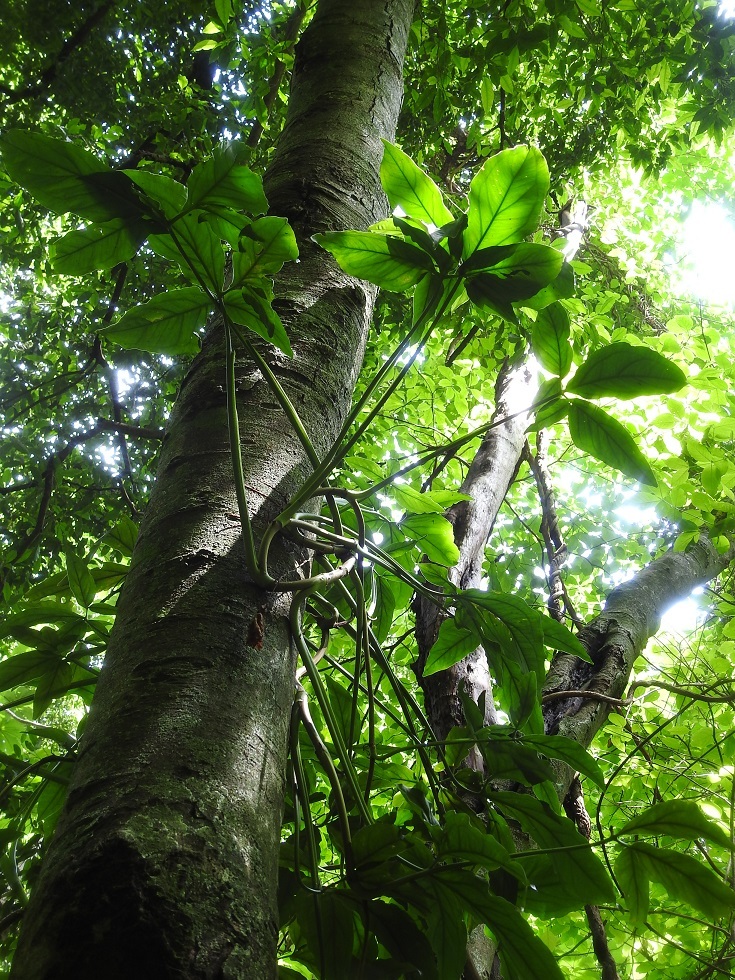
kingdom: Plantae
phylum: Tracheophyta
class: Liliopsida
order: Alismatales
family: Araceae
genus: Syngonium
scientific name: Syngonium angustatum
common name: Fivefingers
